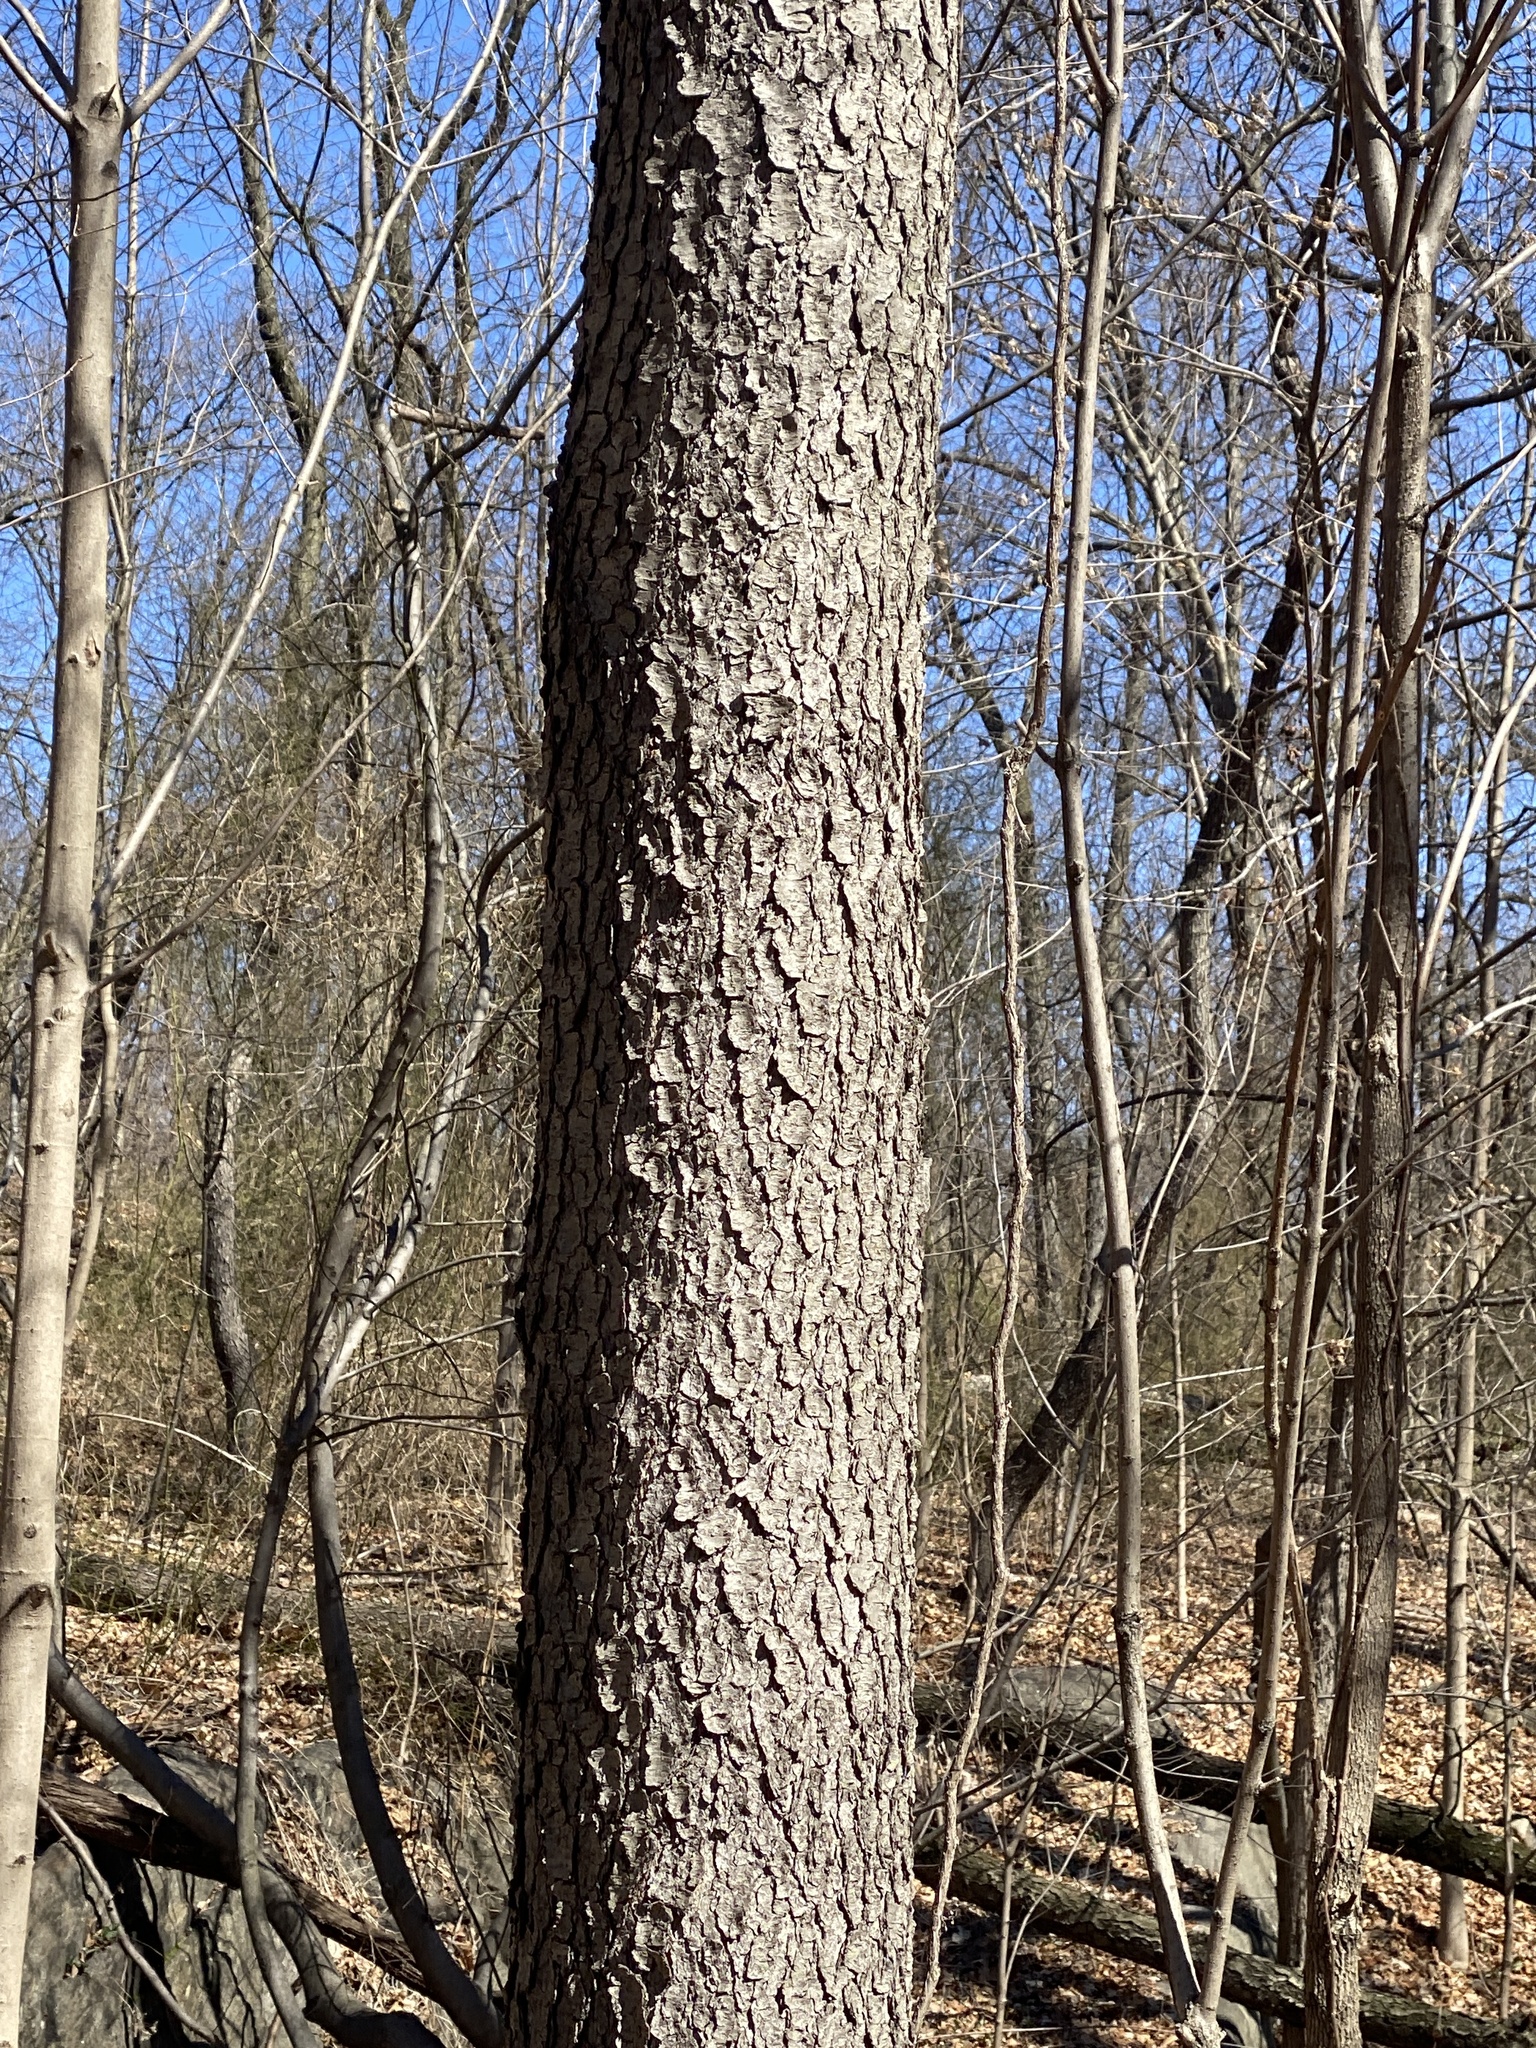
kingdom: Plantae
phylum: Tracheophyta
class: Magnoliopsida
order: Rosales
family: Rosaceae
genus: Prunus
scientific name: Prunus serotina
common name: Black cherry
